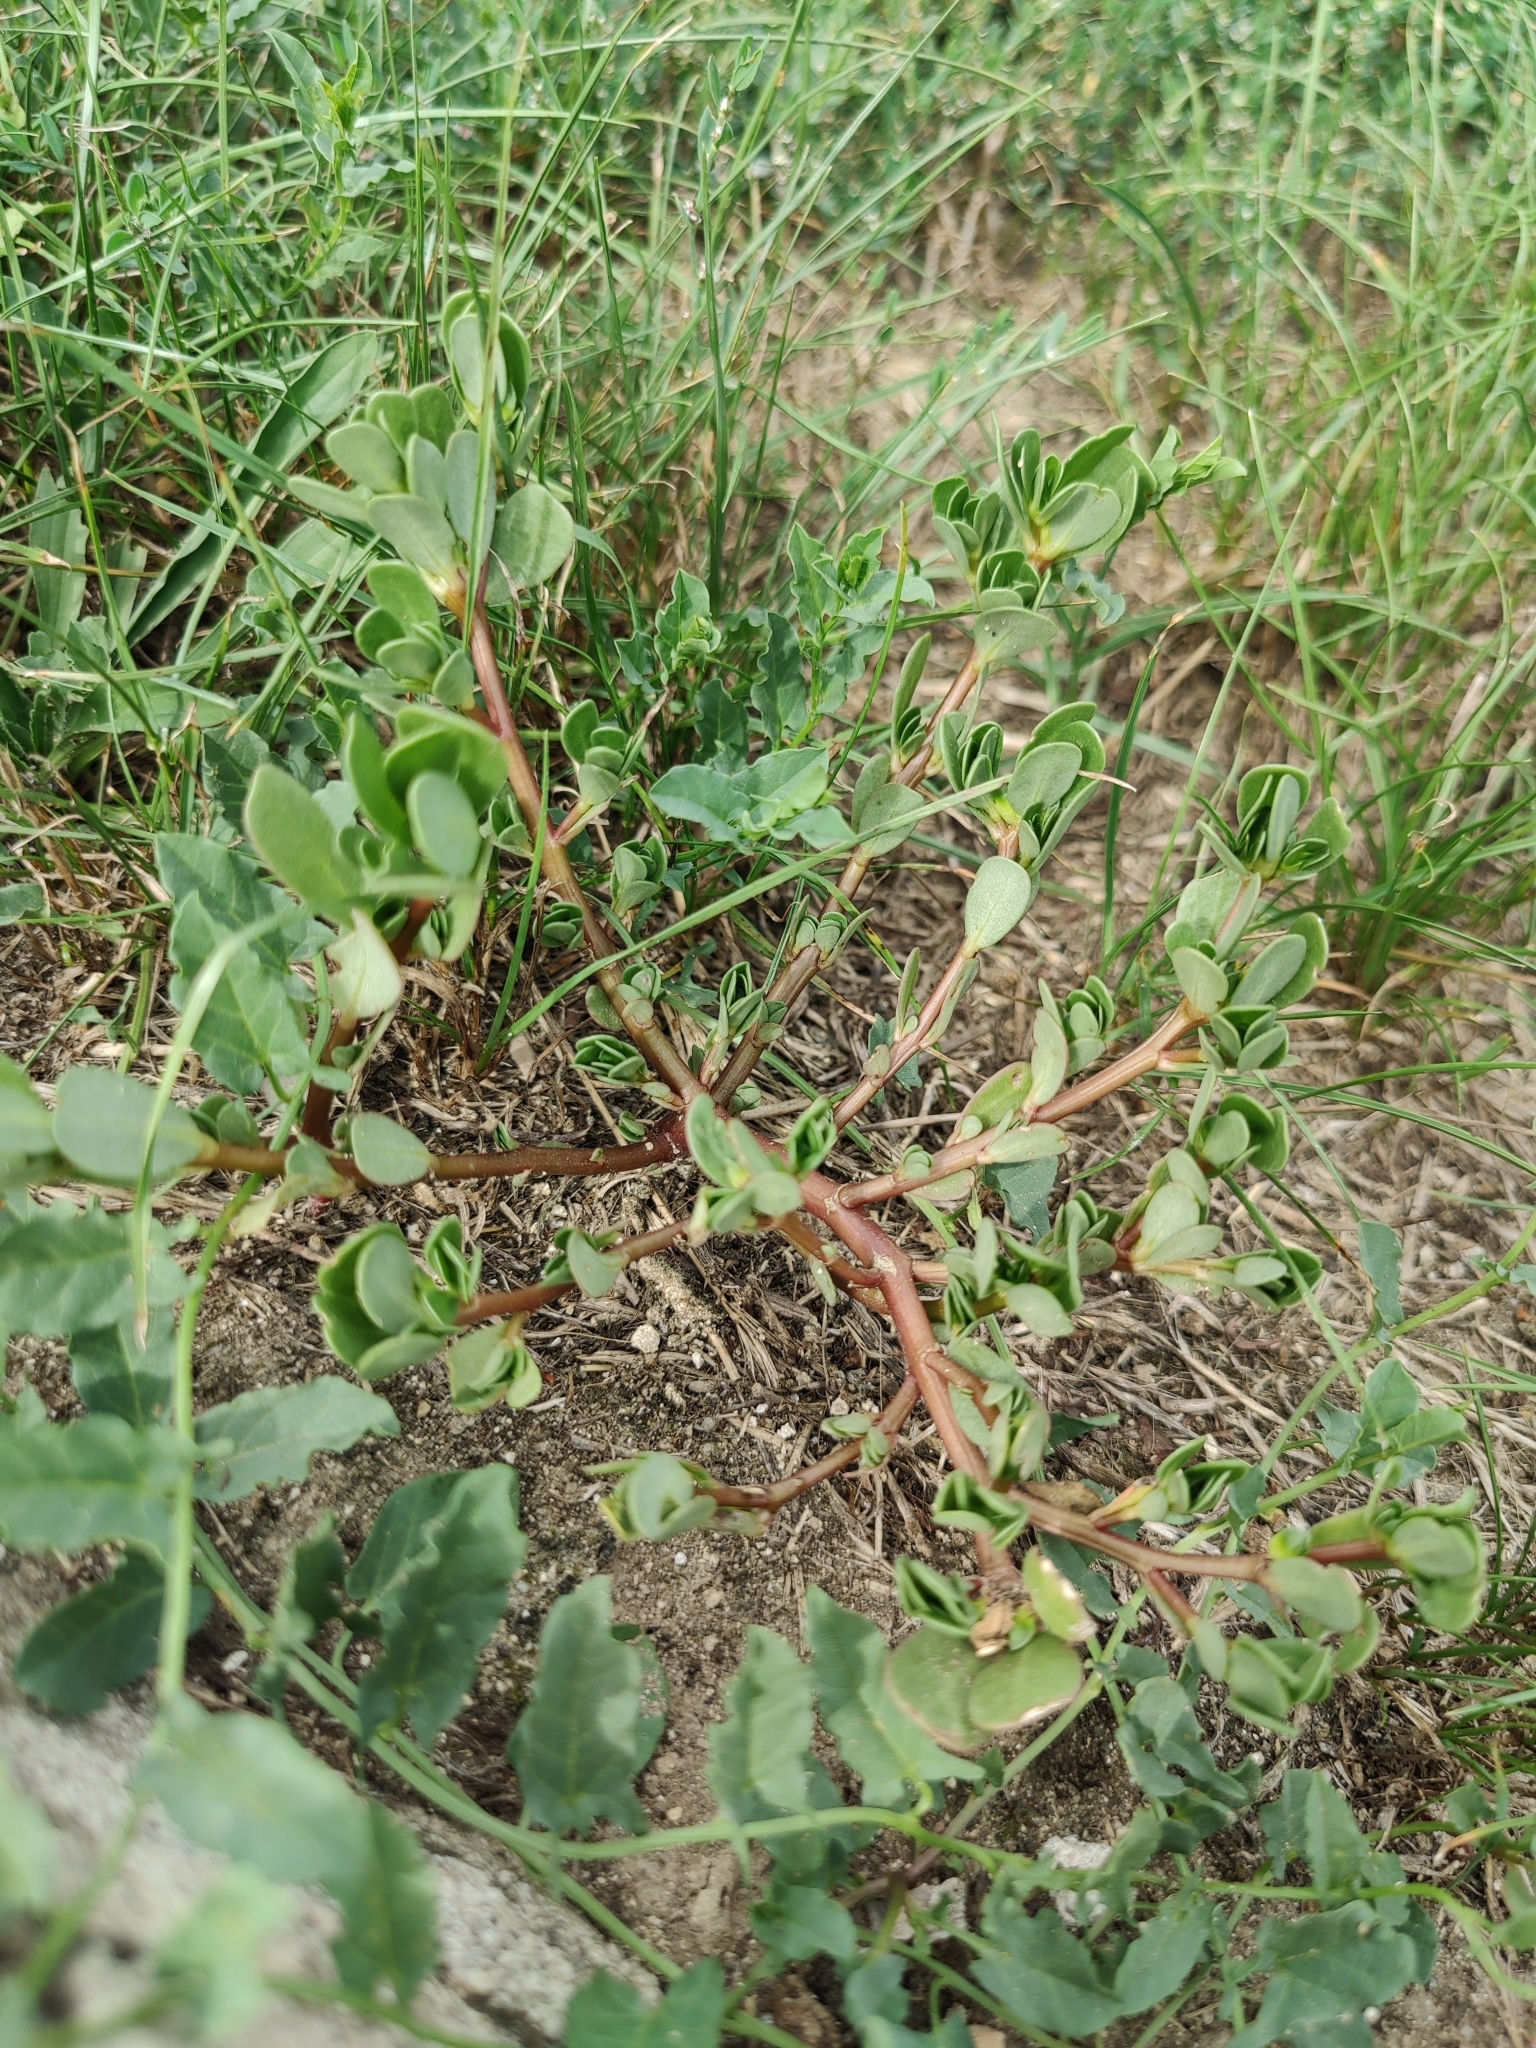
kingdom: Plantae
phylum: Tracheophyta
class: Magnoliopsida
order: Caryophyllales
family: Portulacaceae
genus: Portulaca
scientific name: Portulaca oleracea
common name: Common purslane
